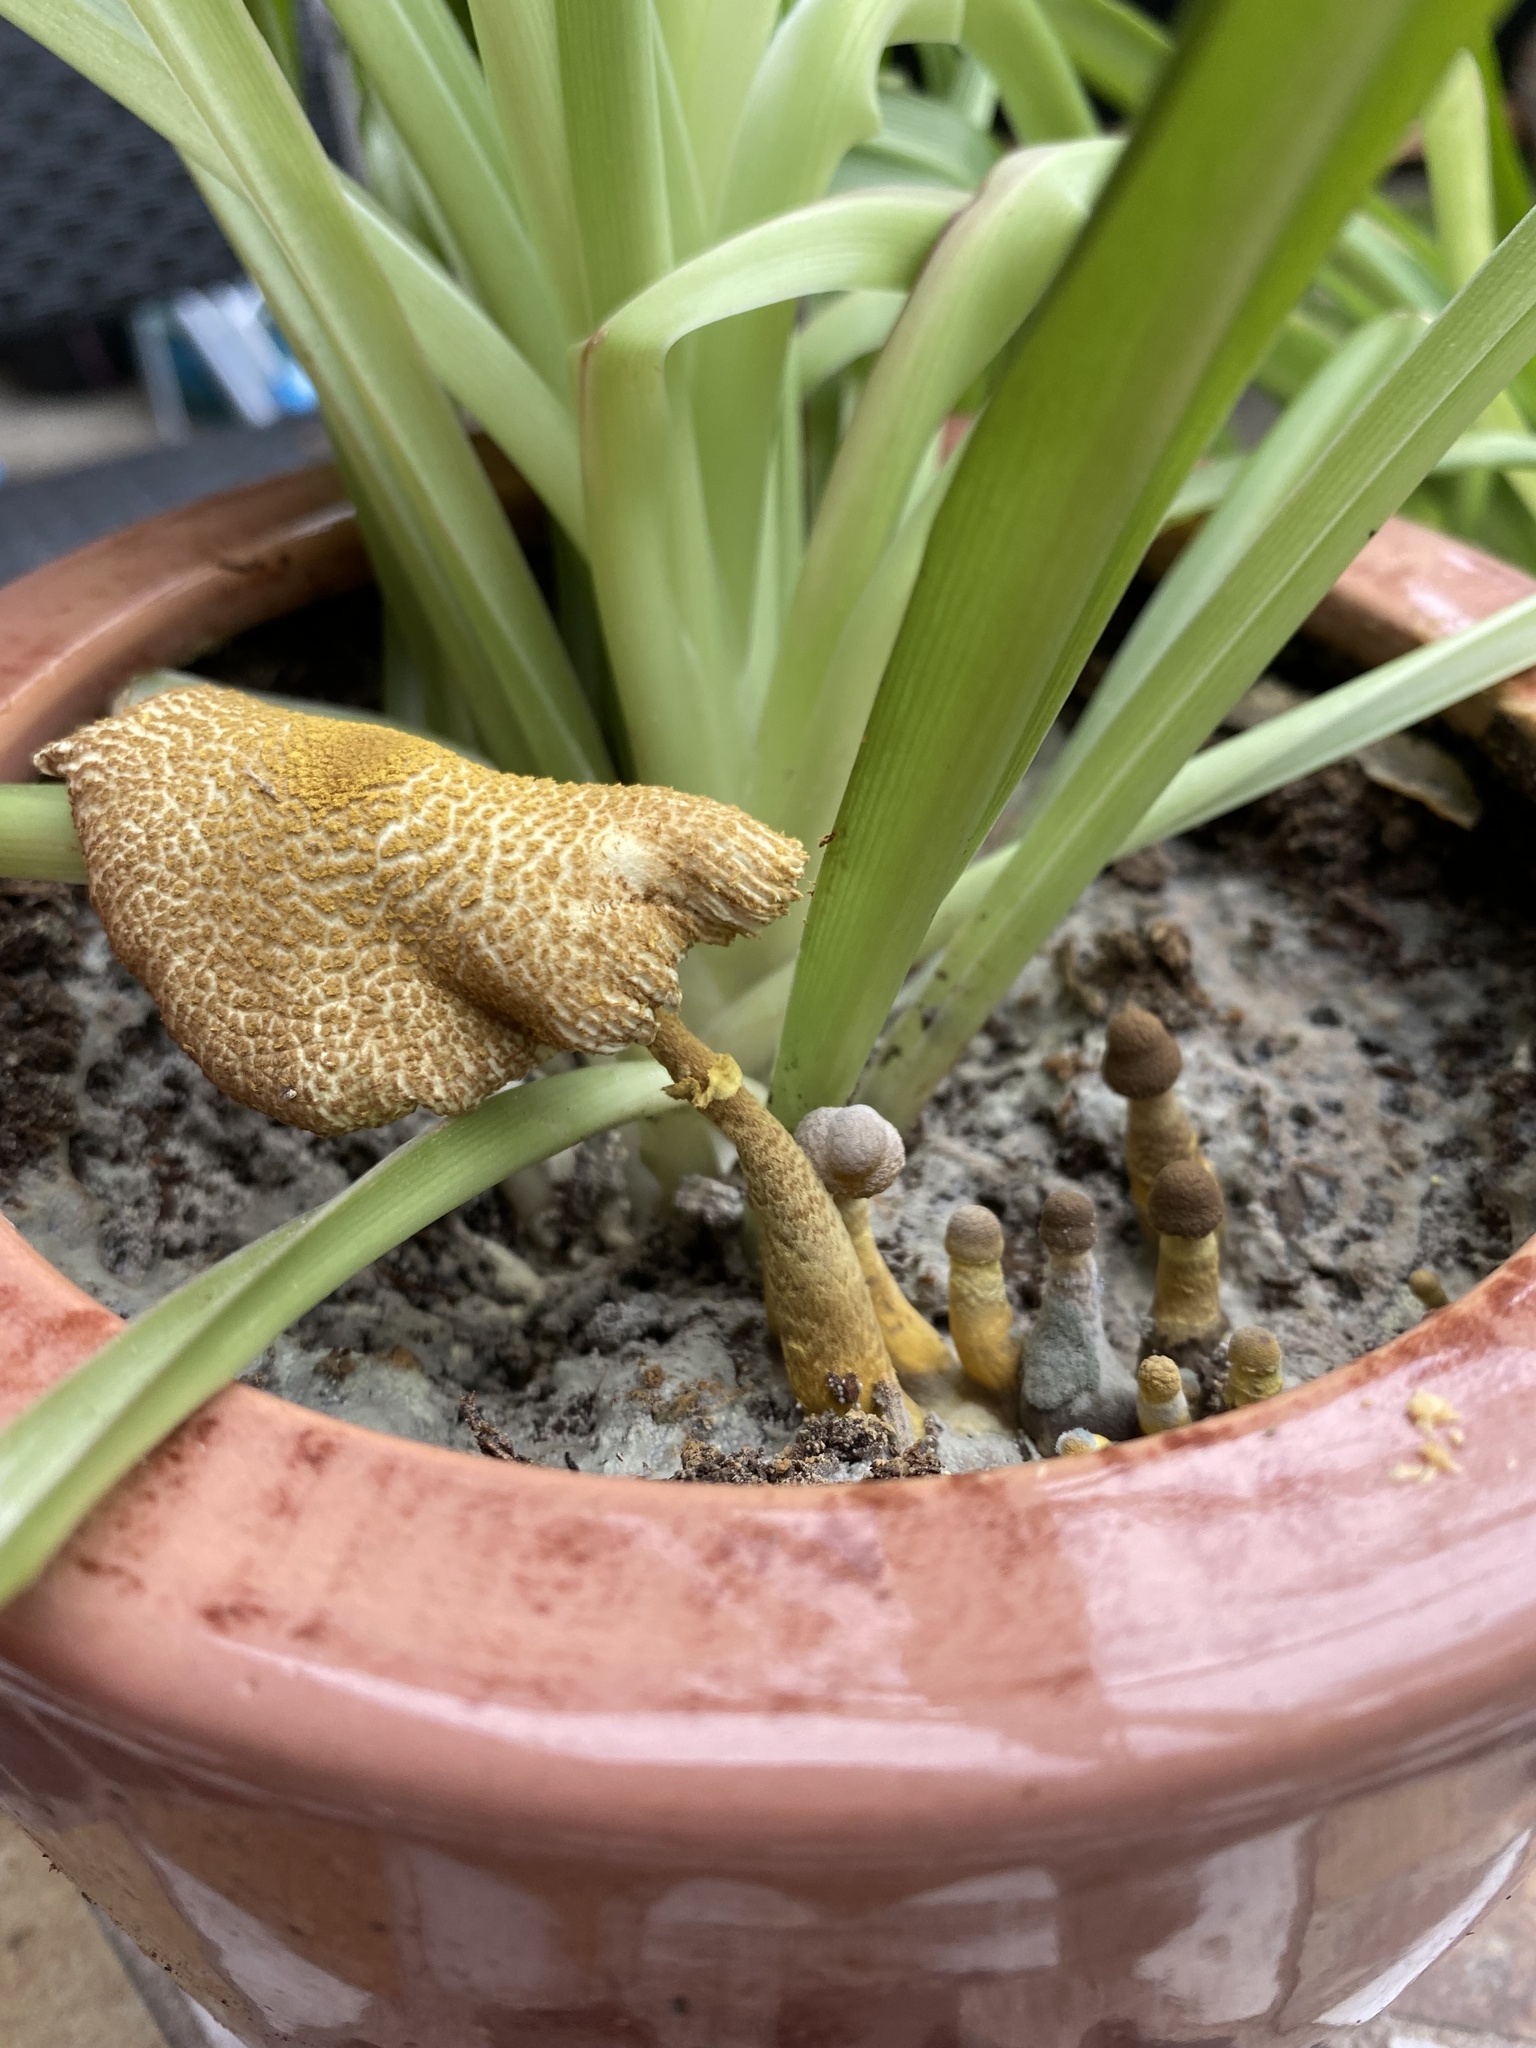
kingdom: Fungi
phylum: Basidiomycota
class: Agaricomycetes
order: Agaricales
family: Agaricaceae
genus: Leucocoprinus
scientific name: Leucocoprinus birnbaumii
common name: Plantpot dapperling
